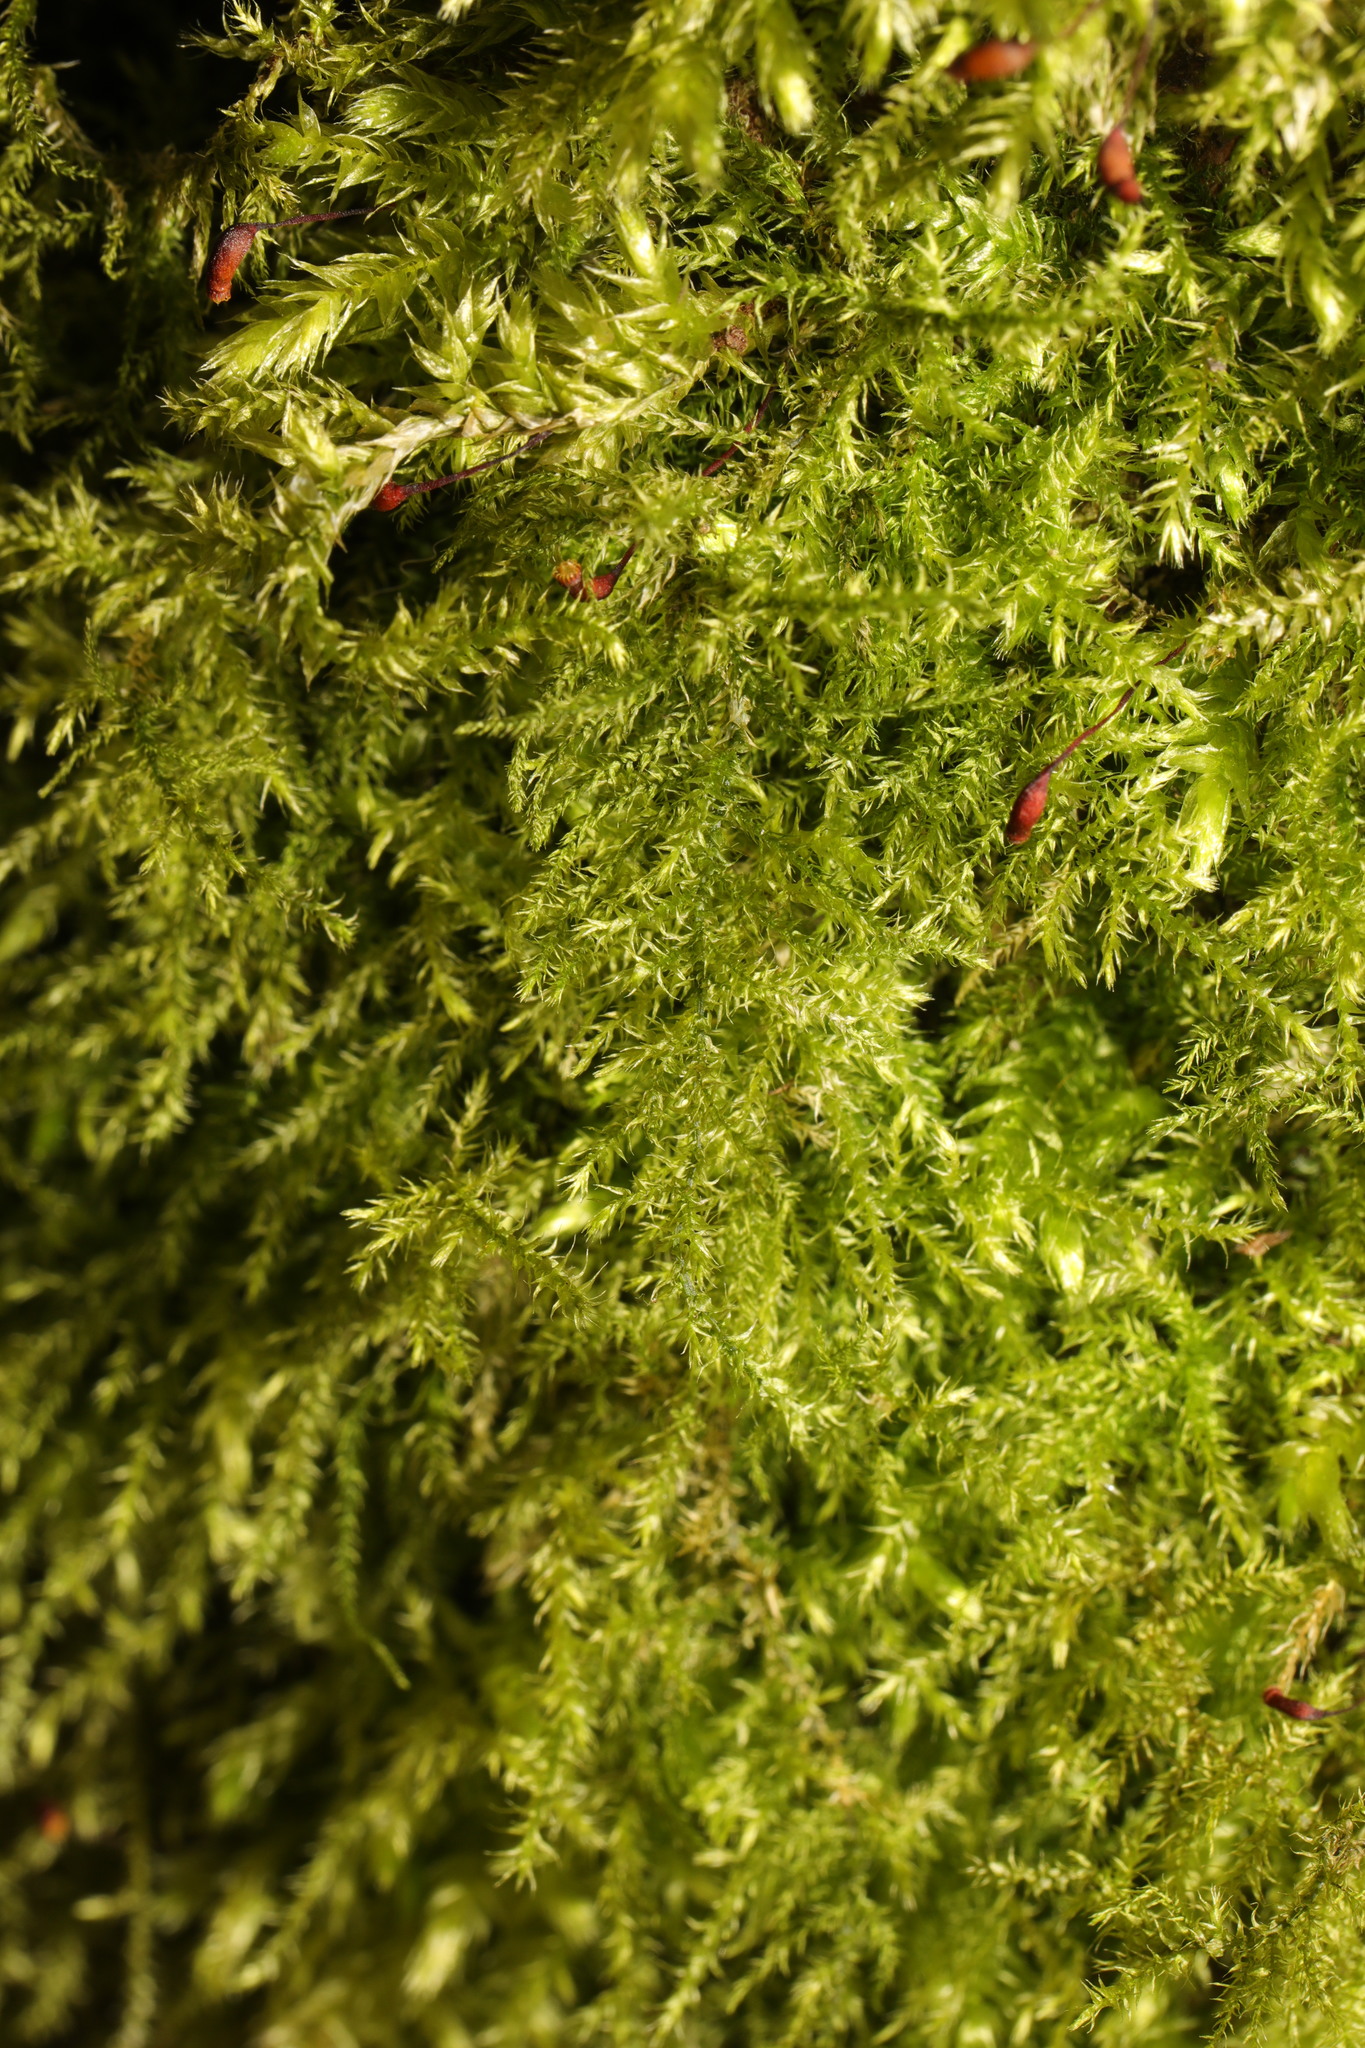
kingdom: Plantae
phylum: Bryophyta
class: Bryopsida
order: Hypnales
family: Brachytheciaceae
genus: Kindbergia
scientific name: Kindbergia praelonga
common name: Slender beaked moss
